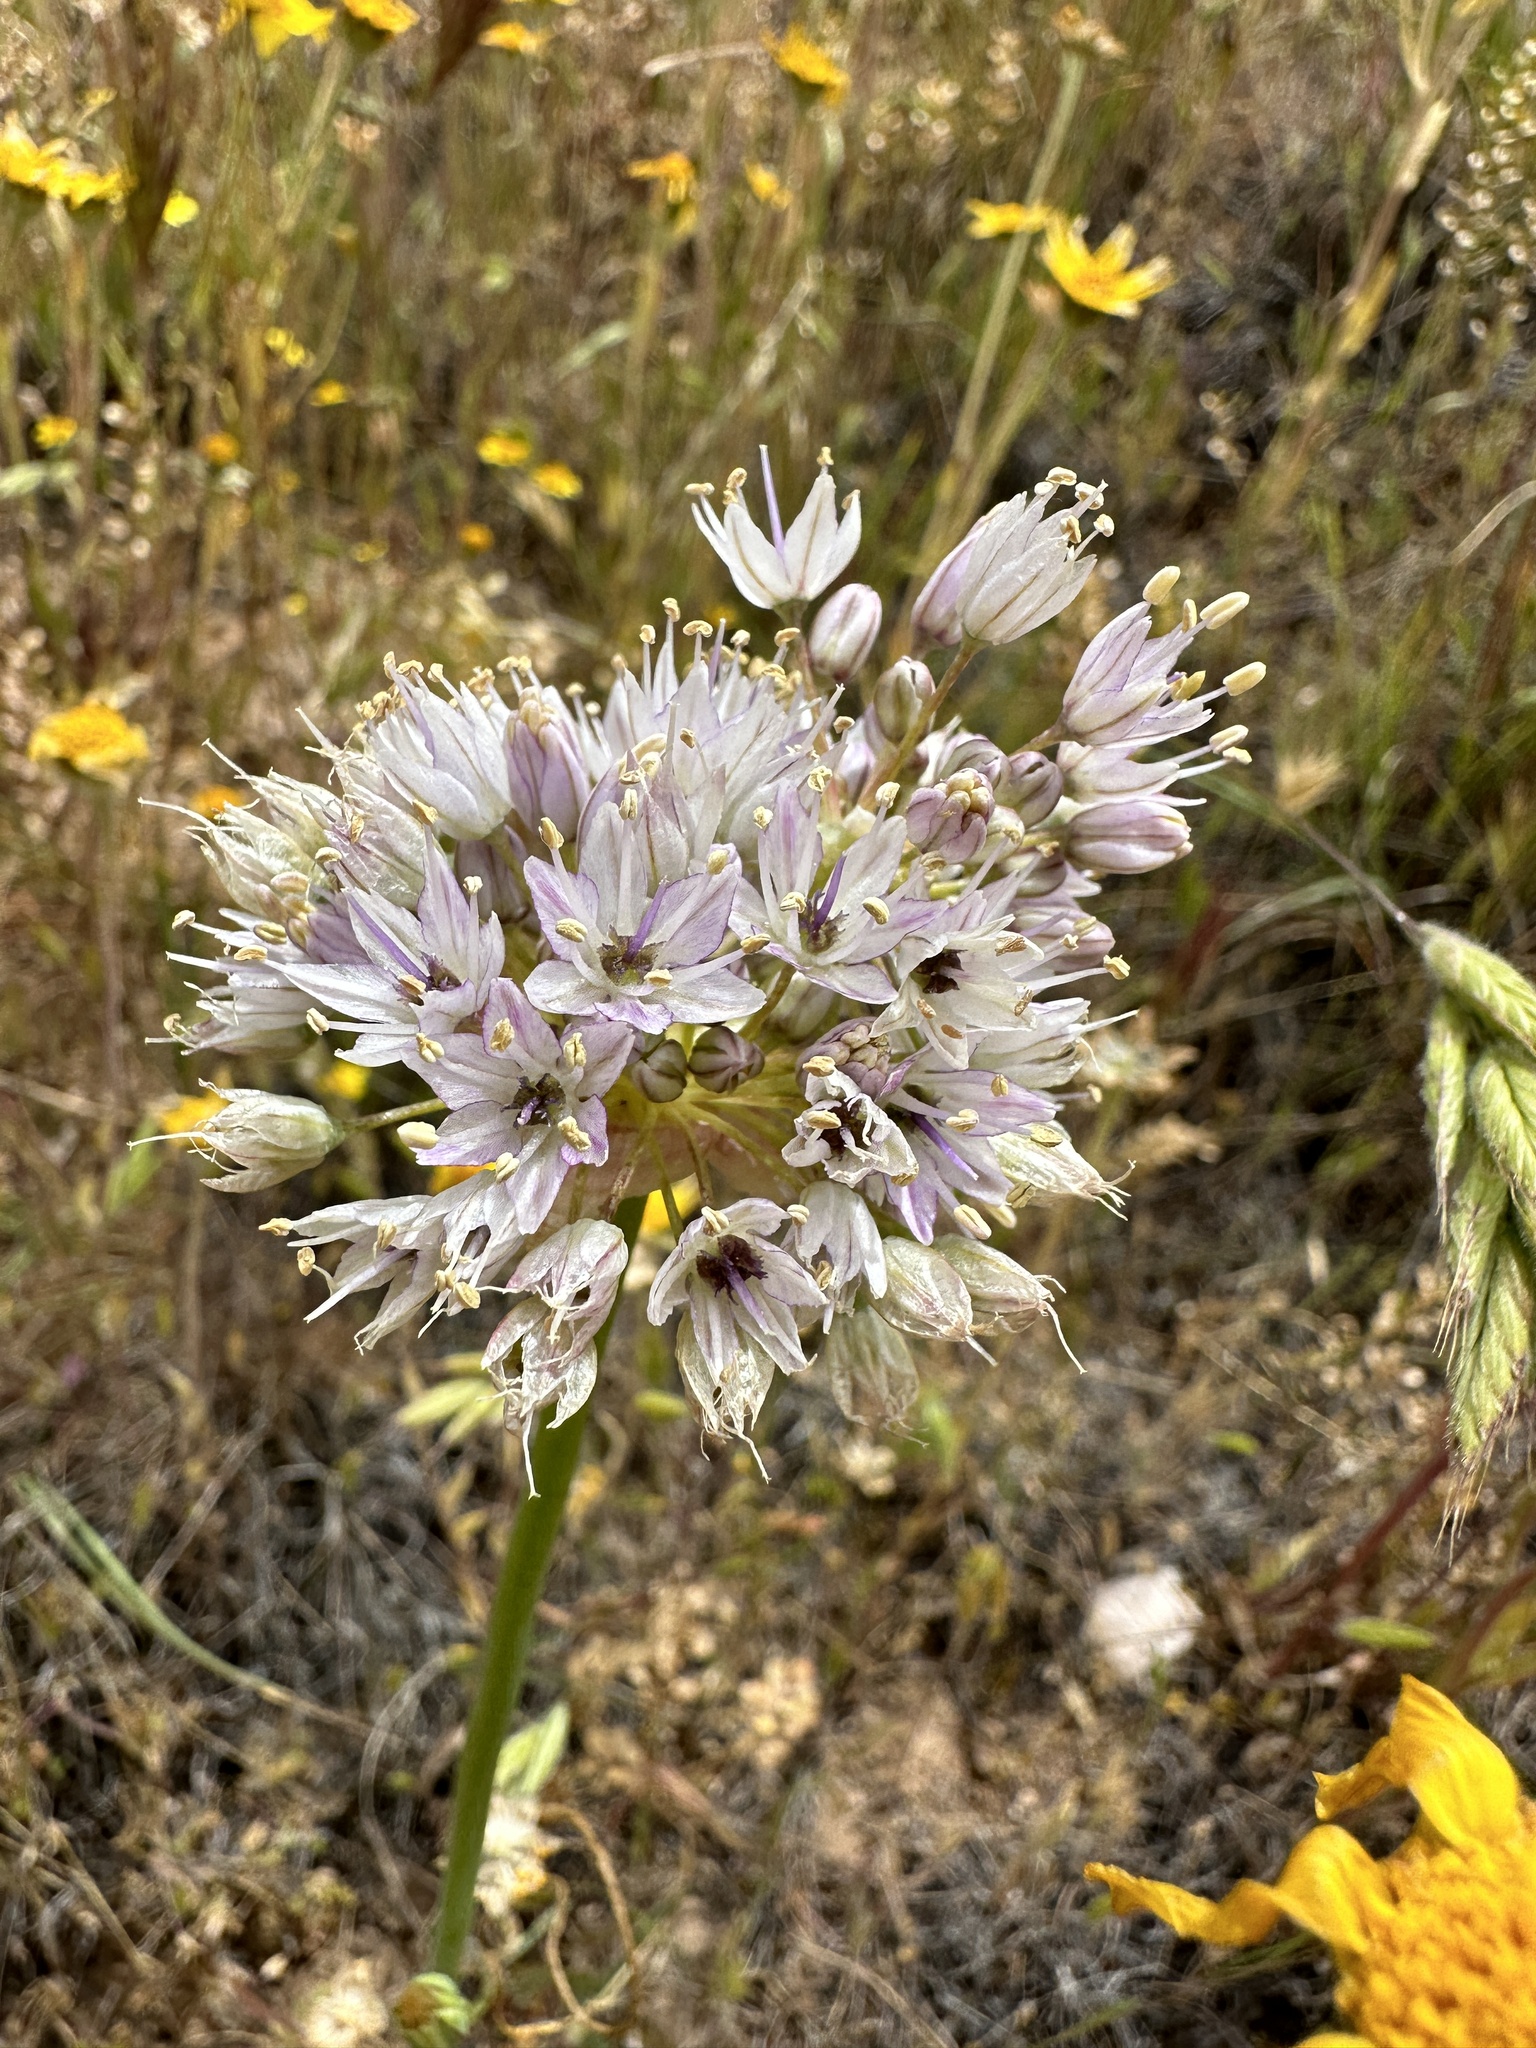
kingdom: Plantae
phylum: Tracheophyta
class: Liliopsida
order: Asparagales
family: Amaryllidaceae
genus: Allium
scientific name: Allium howellii
